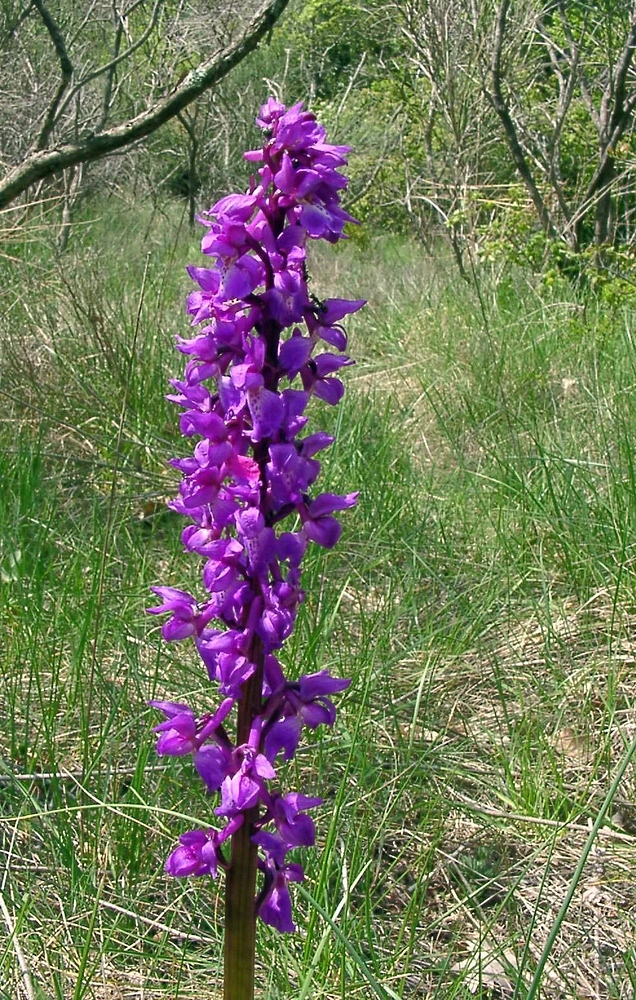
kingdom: Plantae
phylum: Tracheophyta
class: Liliopsida
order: Asparagales
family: Orchidaceae
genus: Orchis
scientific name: Orchis mascula
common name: Early-purple orchid
